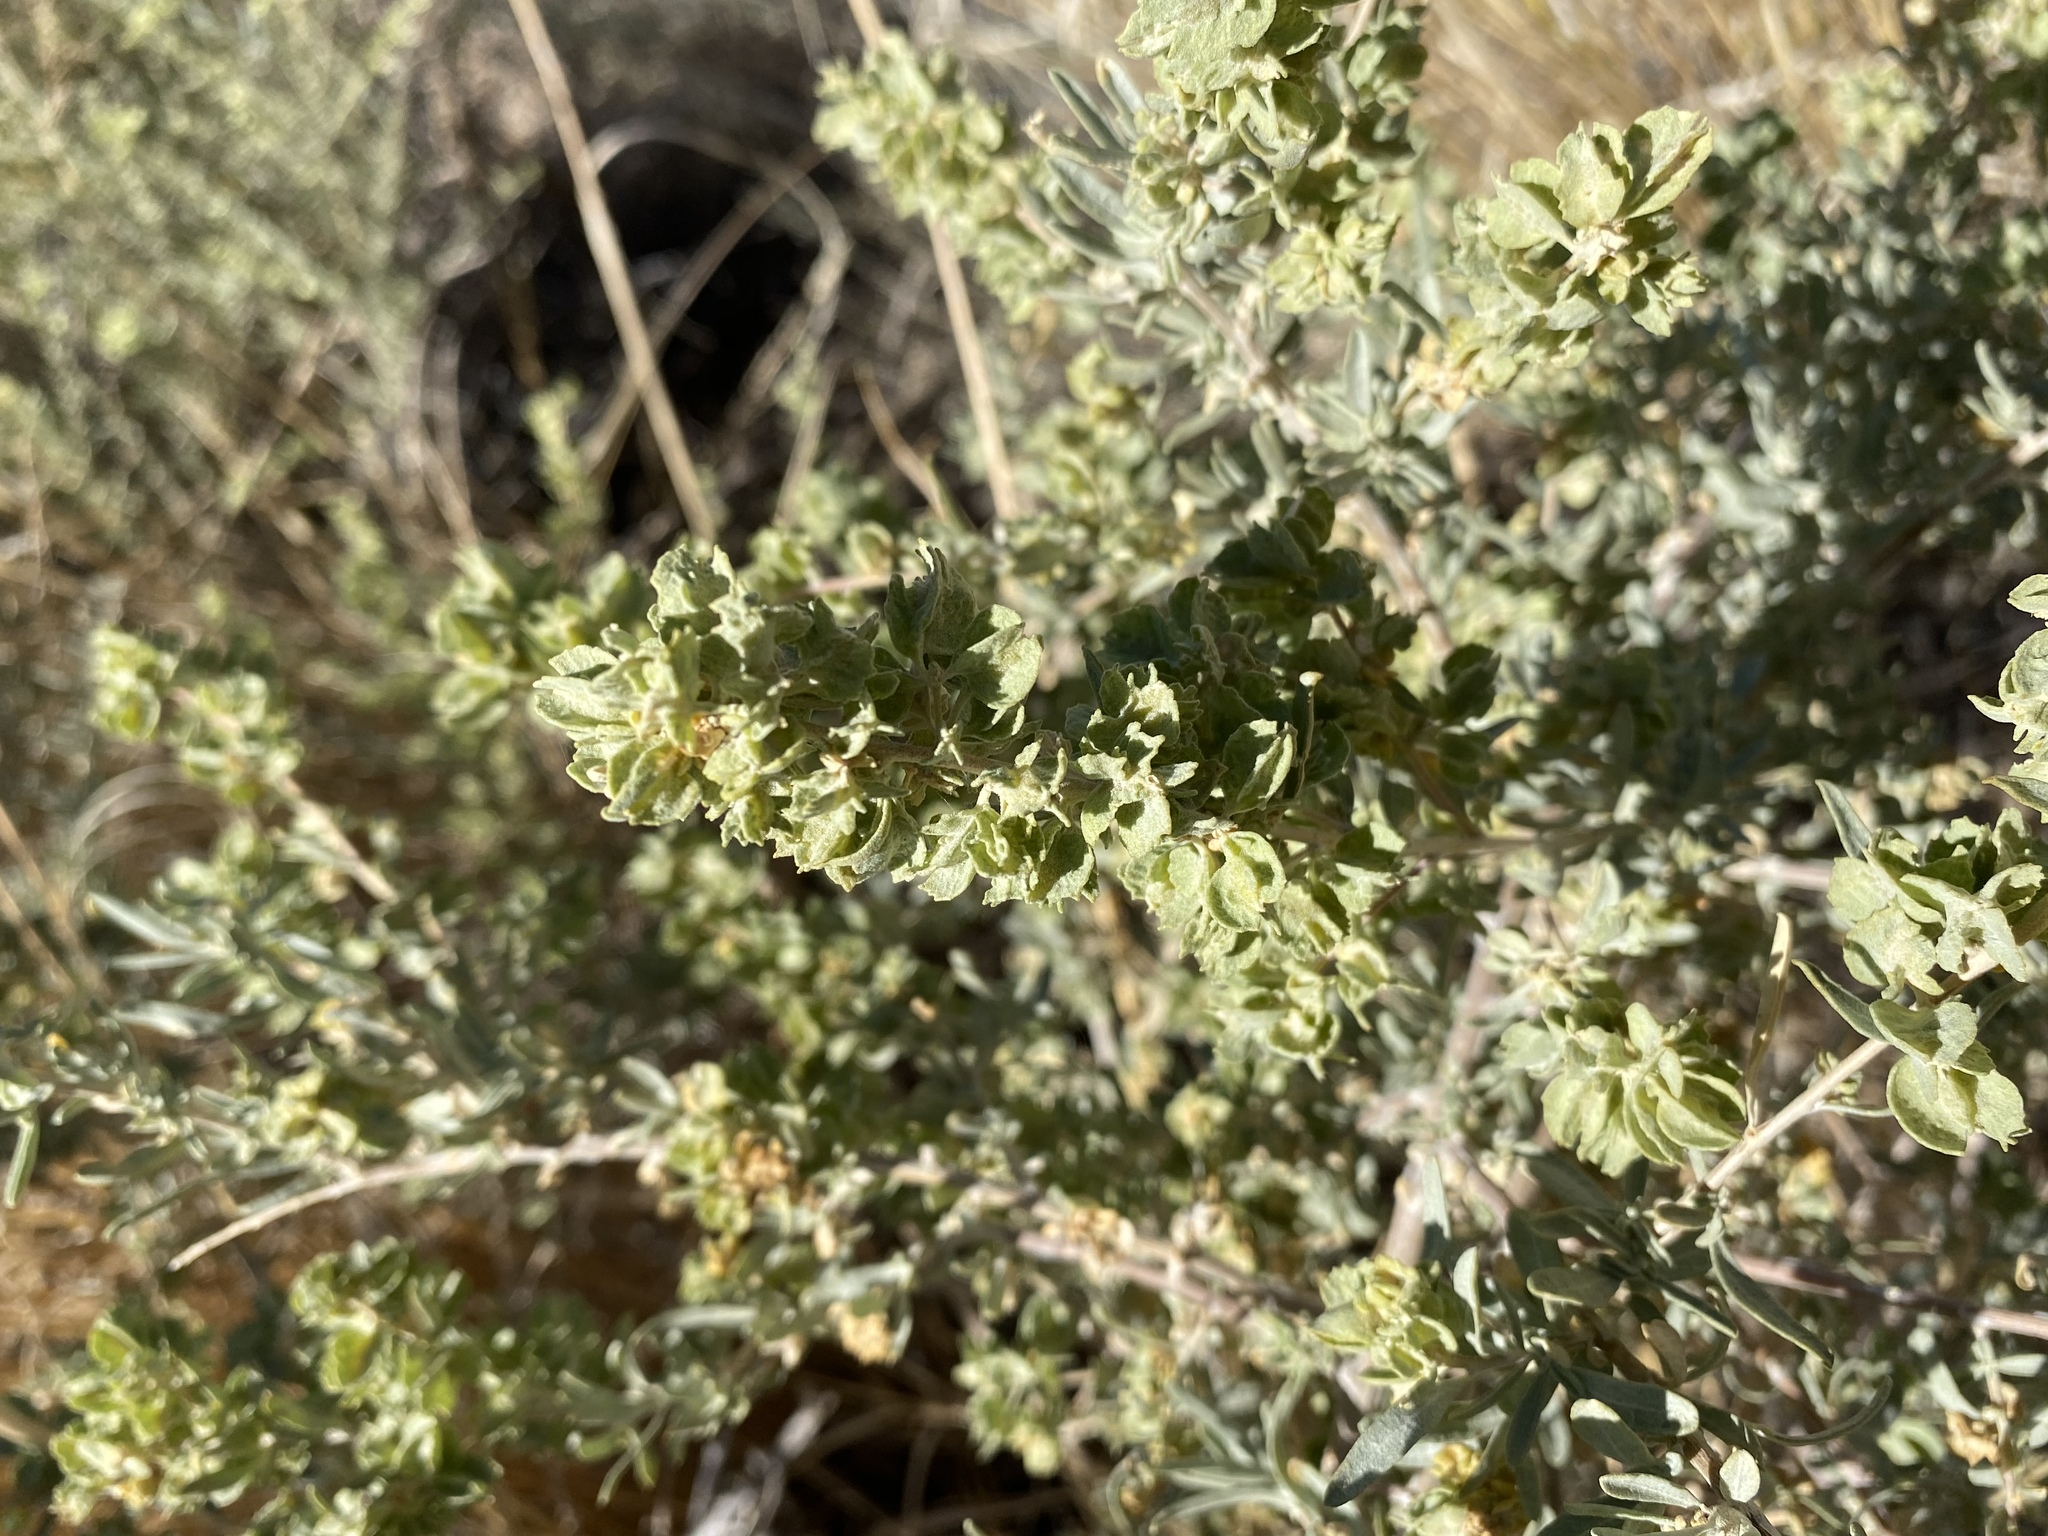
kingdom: Plantae
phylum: Tracheophyta
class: Magnoliopsida
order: Caryophyllales
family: Amaranthaceae
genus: Atriplex
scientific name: Atriplex canescens
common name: Four-wing saltbush
